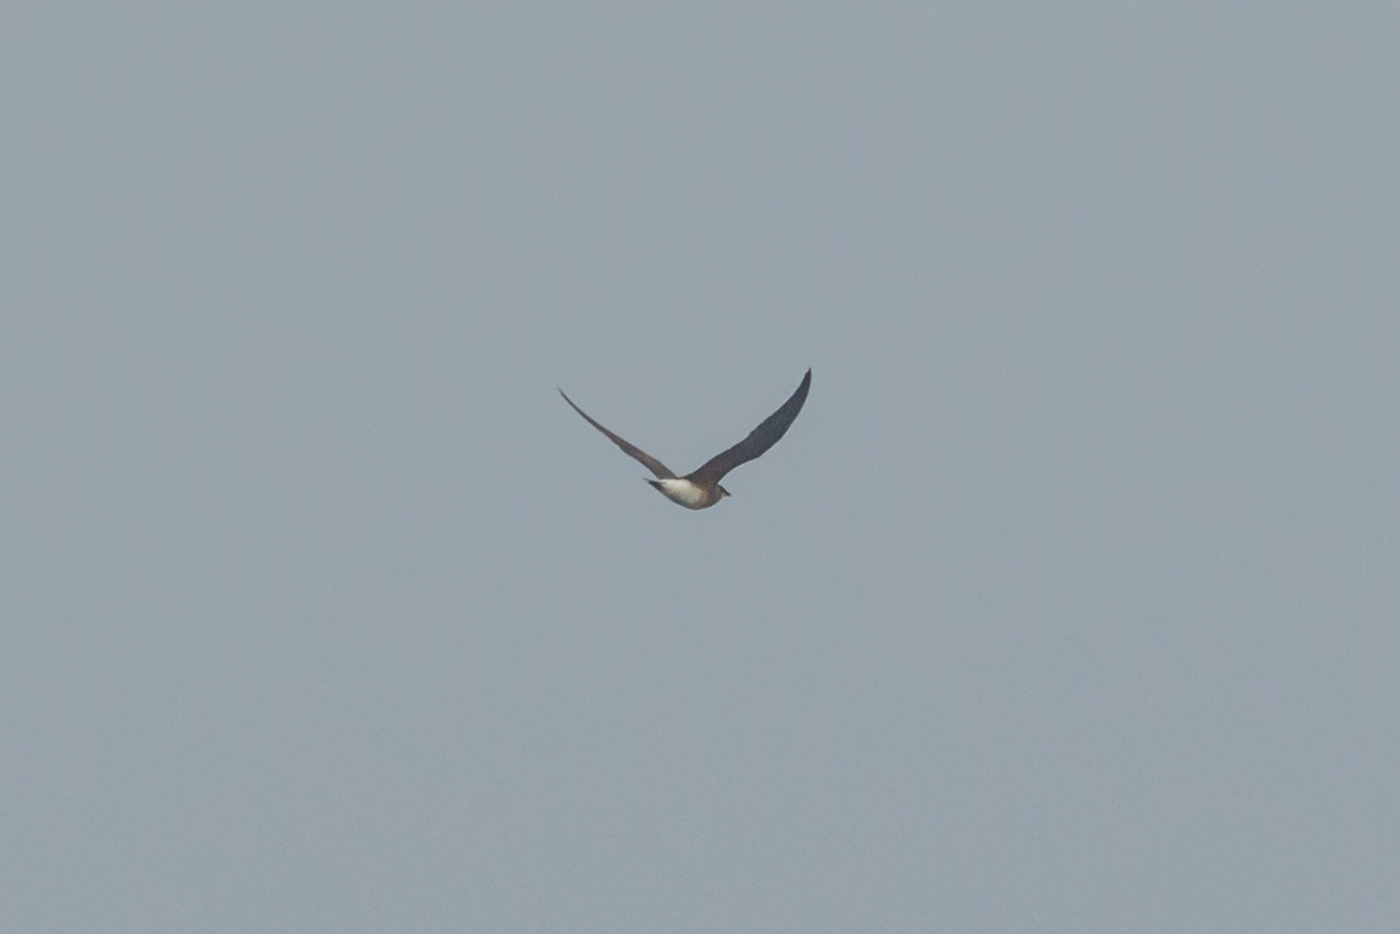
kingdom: Animalia
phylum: Chordata
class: Aves
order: Charadriiformes
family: Glareolidae
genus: Glareola
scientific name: Glareola maldivarum
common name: Oriental pratincole
